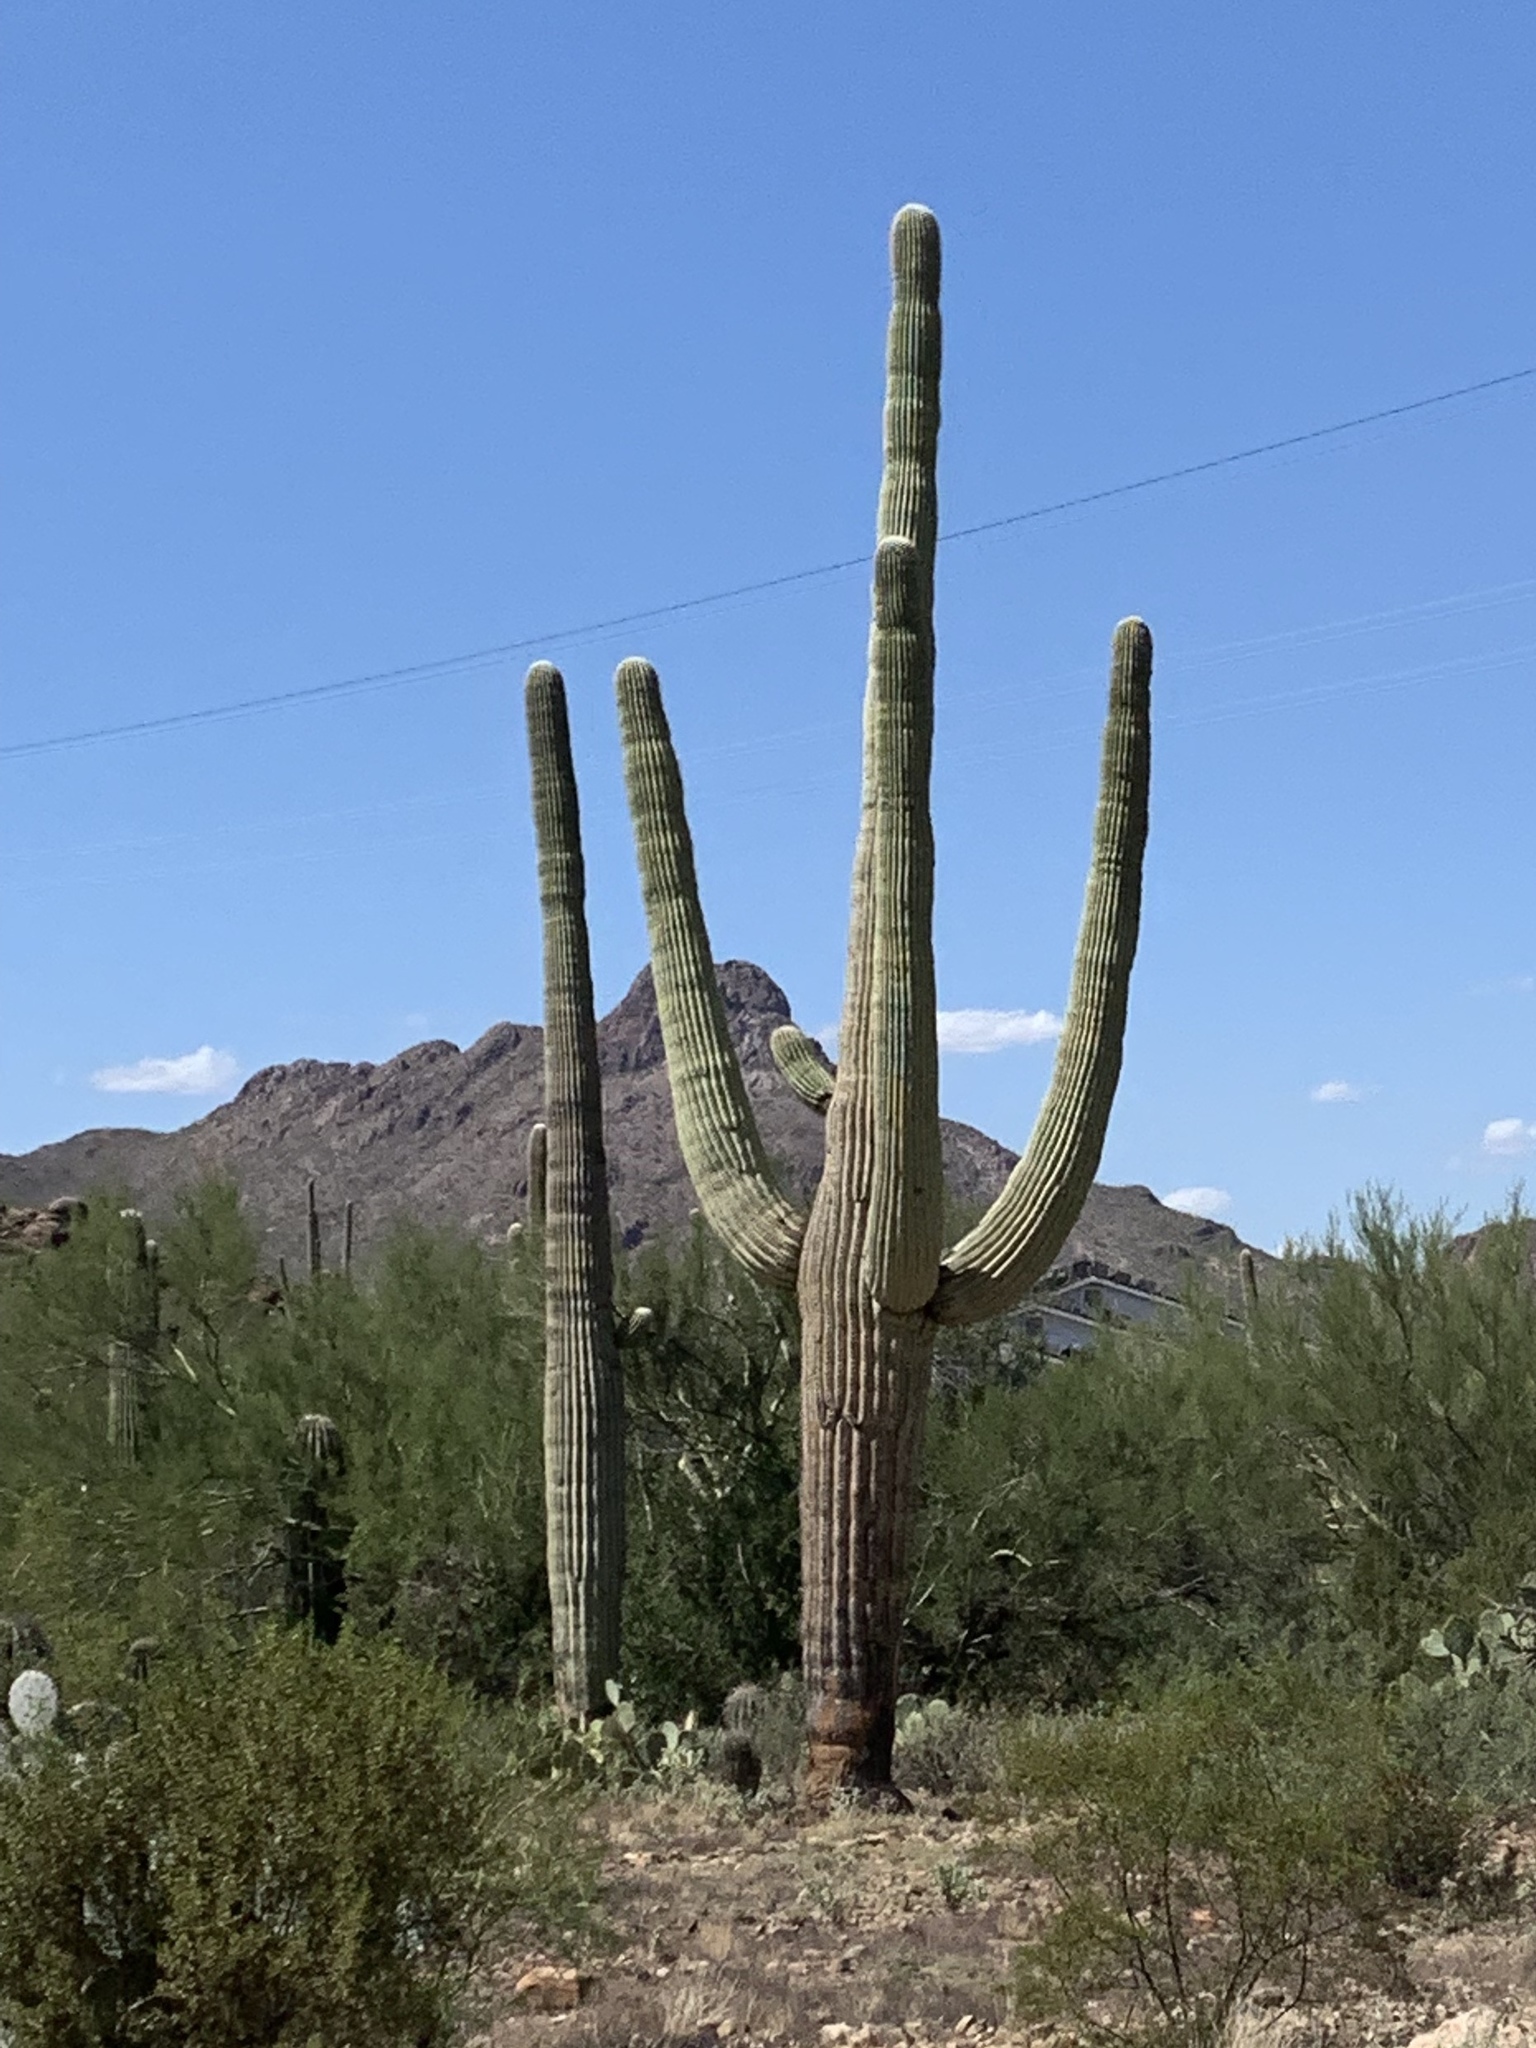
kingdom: Plantae
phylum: Tracheophyta
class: Magnoliopsida
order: Caryophyllales
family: Cactaceae
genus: Carnegiea
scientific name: Carnegiea gigantea
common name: Saguaro
